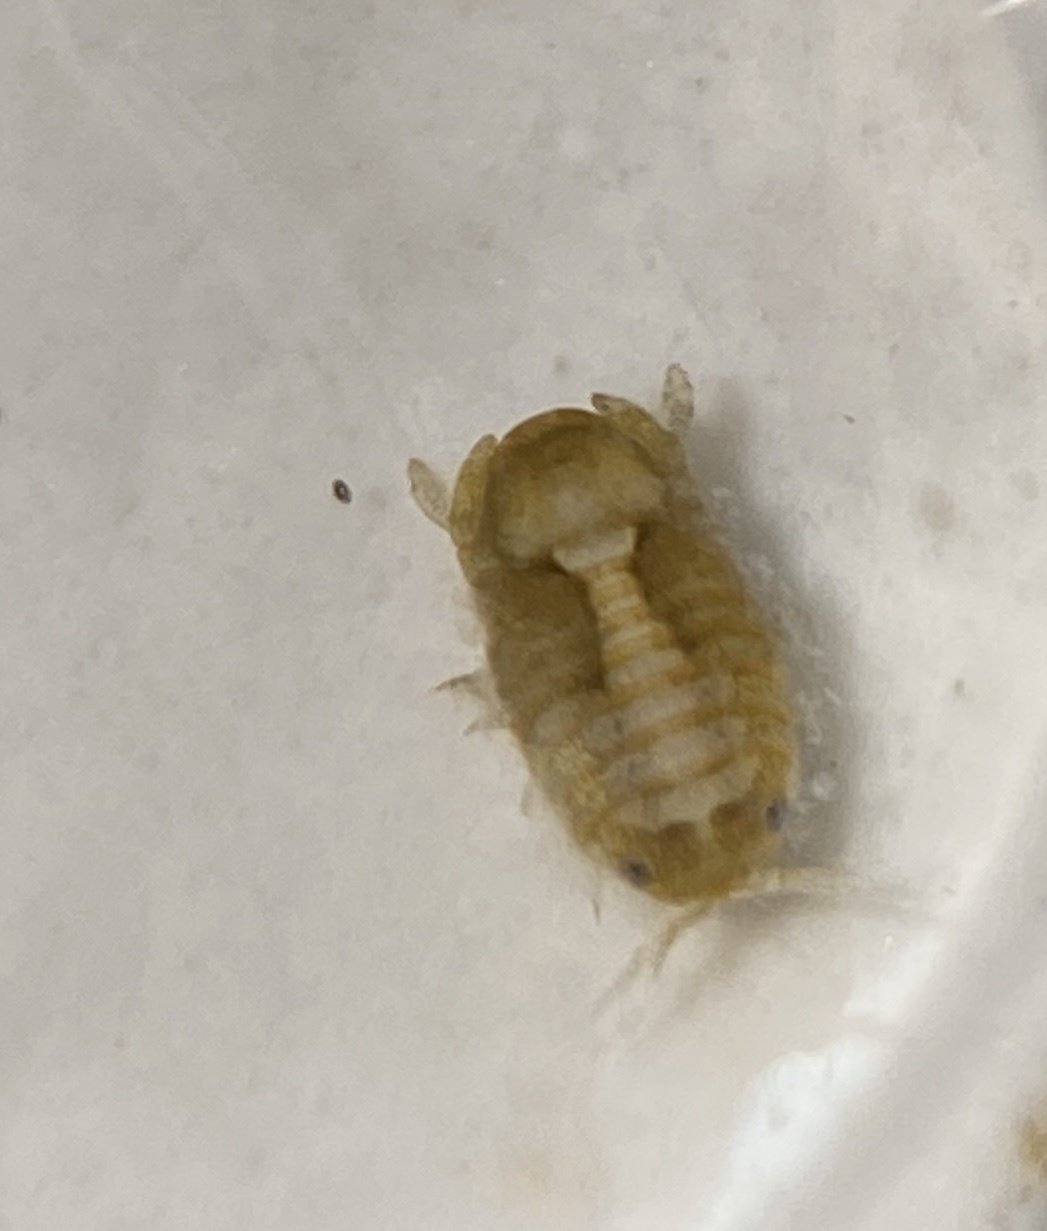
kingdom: Animalia
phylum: Arthropoda
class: Malacostraca
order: Isopoda
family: Sphaeromatidae
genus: Sphaeroma
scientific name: Sphaeroma quadridentatum
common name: Sea pill bug
